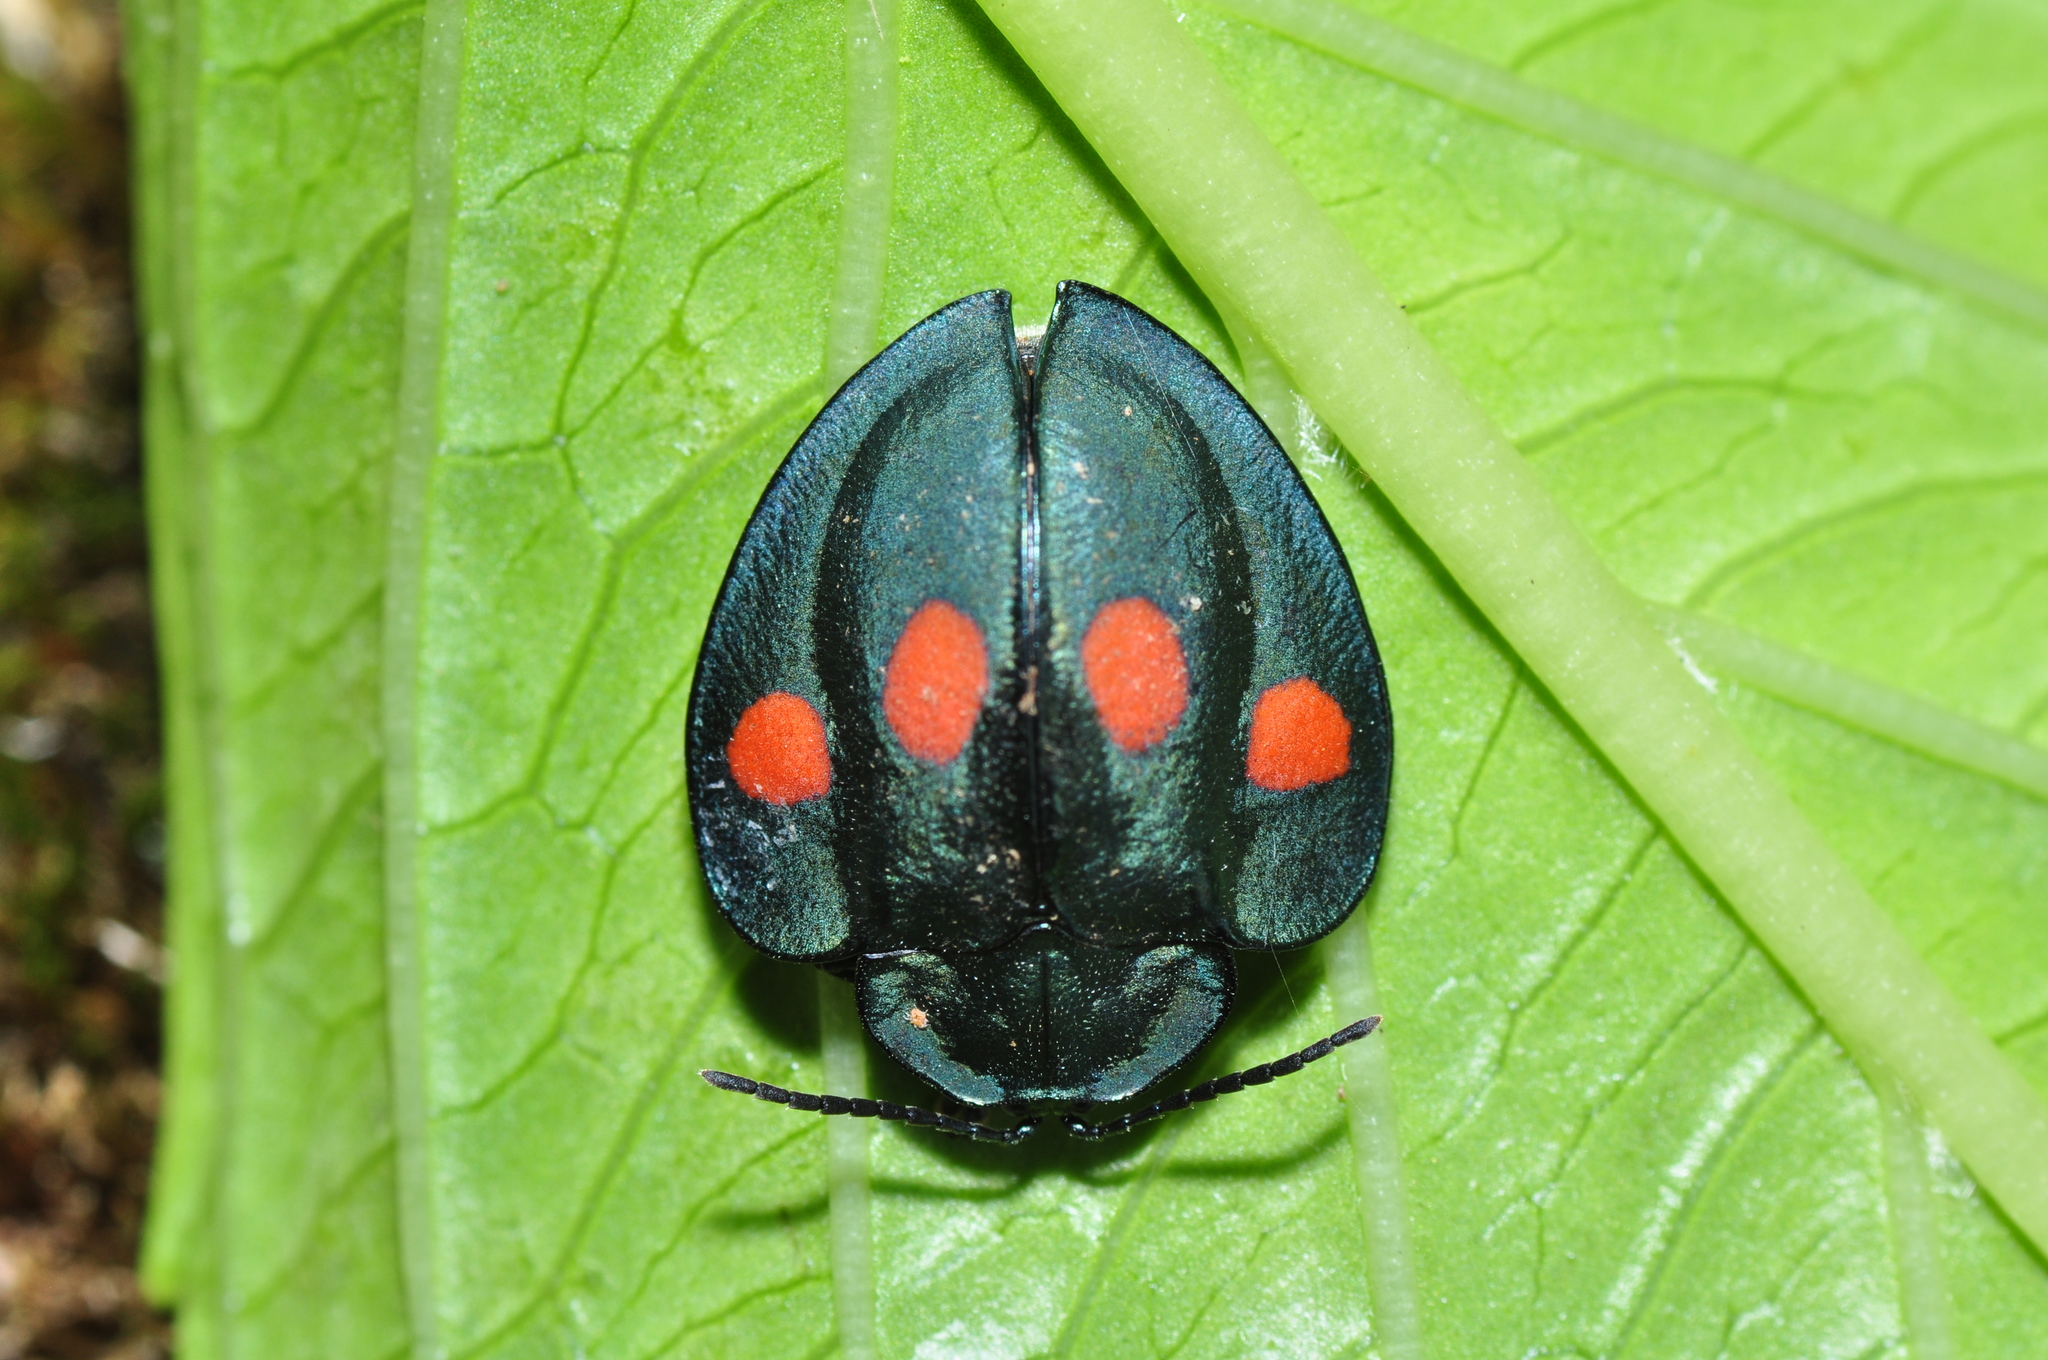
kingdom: Animalia
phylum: Arthropoda
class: Insecta
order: Coleoptera
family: Chrysomelidae
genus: Stolas
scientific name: Stolas lebasii
